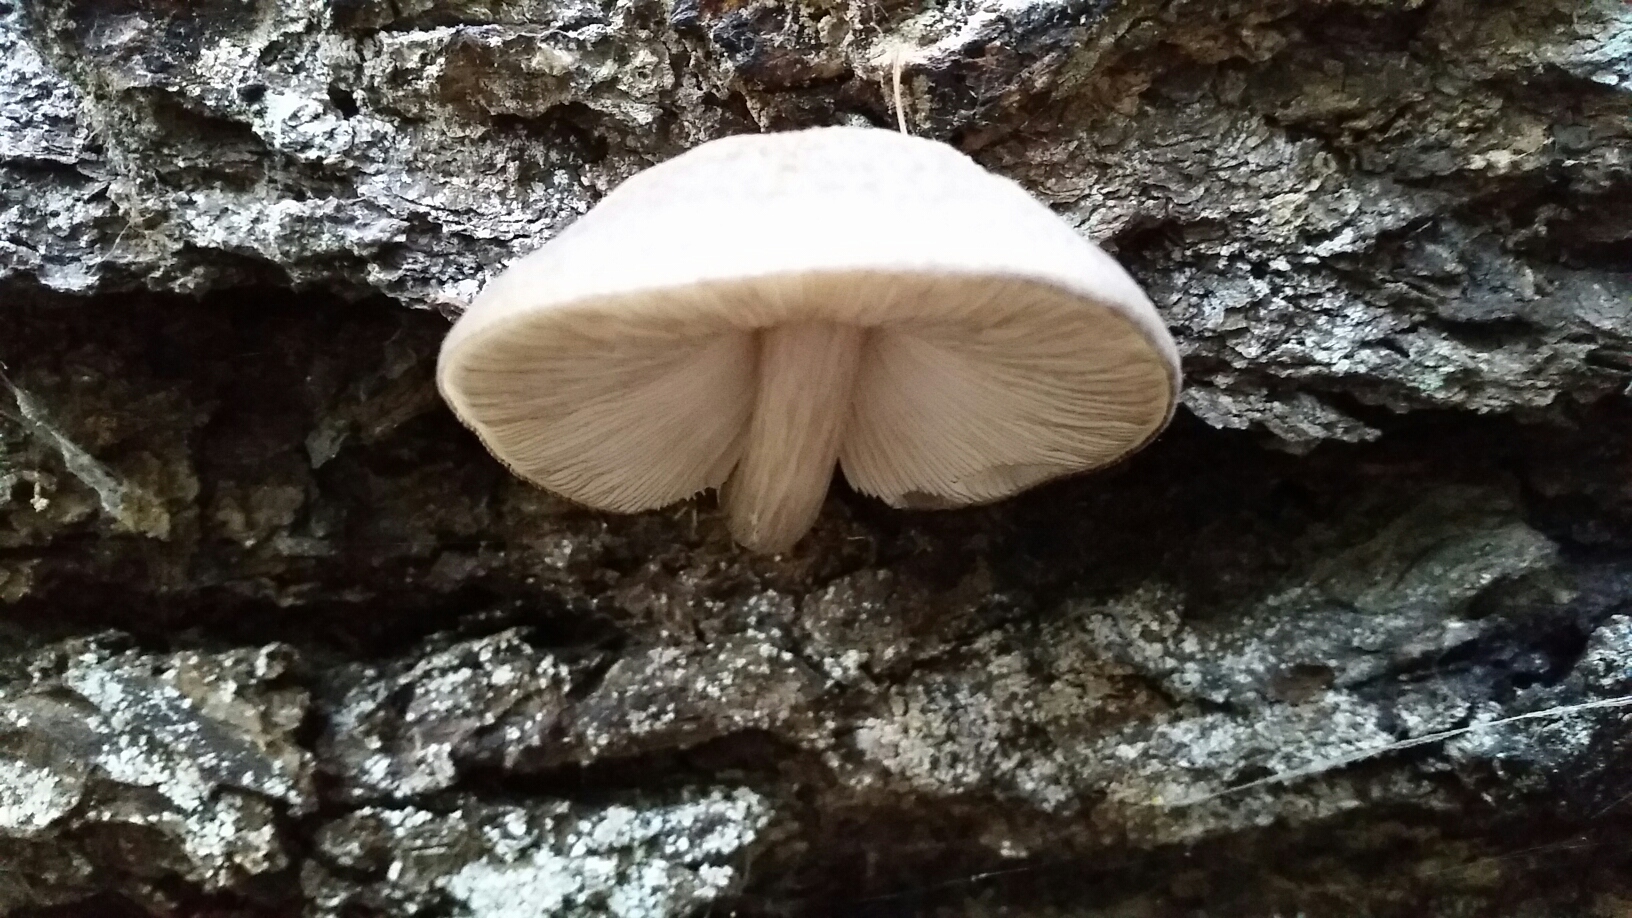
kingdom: Fungi
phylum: Basidiomycota
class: Agaricomycetes
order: Agaricales
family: Pluteaceae
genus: Pluteus
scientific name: Pluteus cervinus
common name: Deer shield
